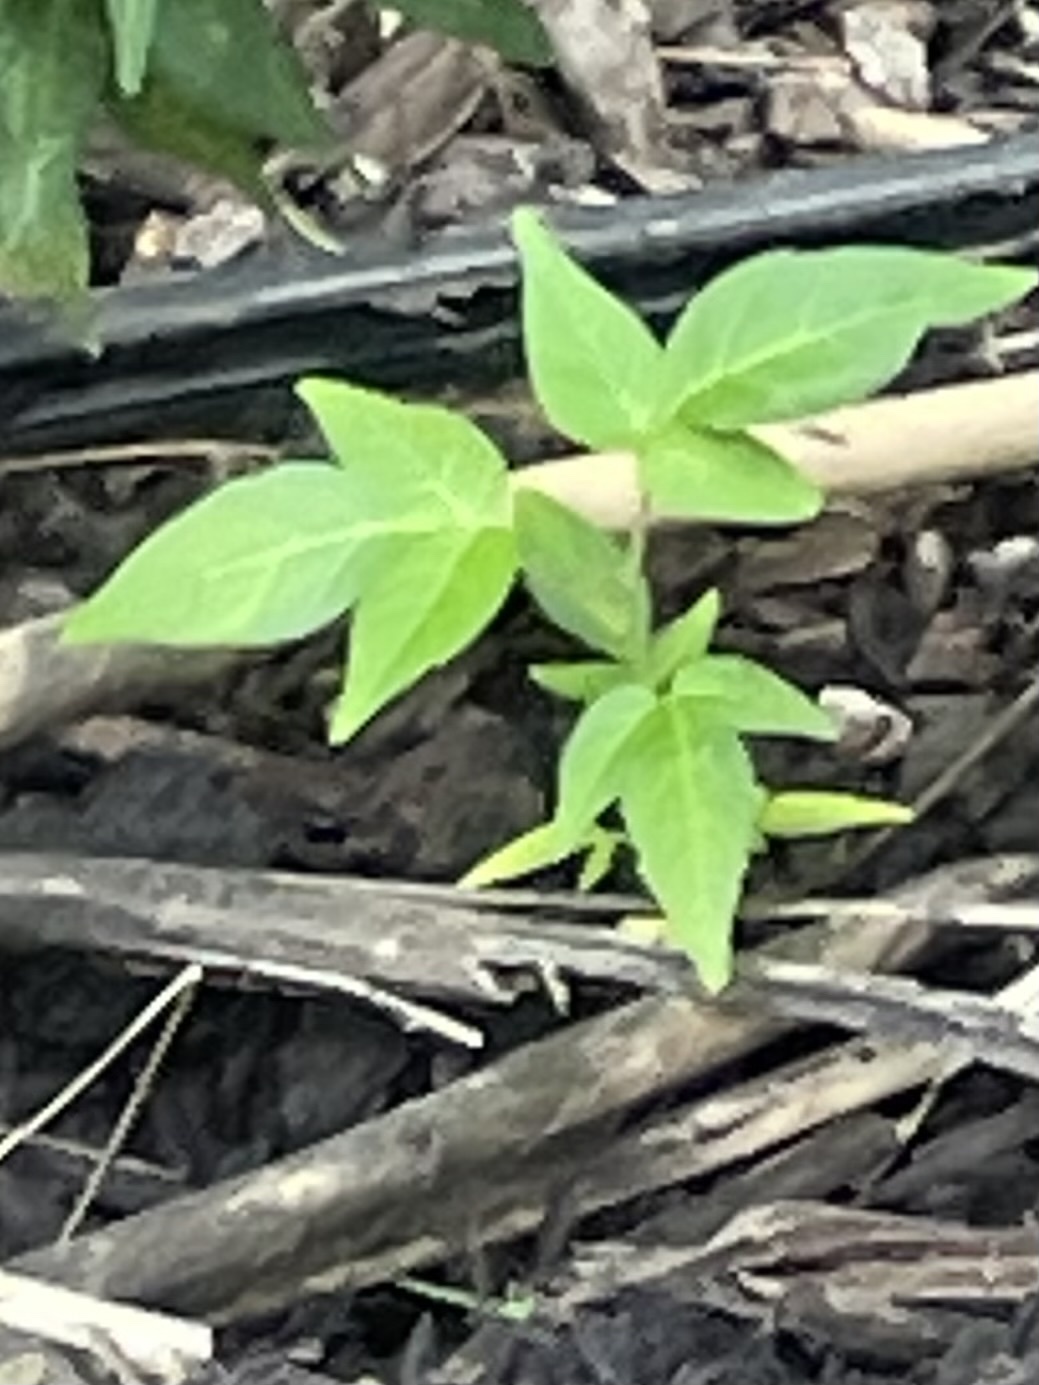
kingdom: Plantae
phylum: Tracheophyta
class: Magnoliopsida
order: Sapindales
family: Simaroubaceae
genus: Ailanthus
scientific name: Ailanthus altissima
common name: Tree-of-heaven
